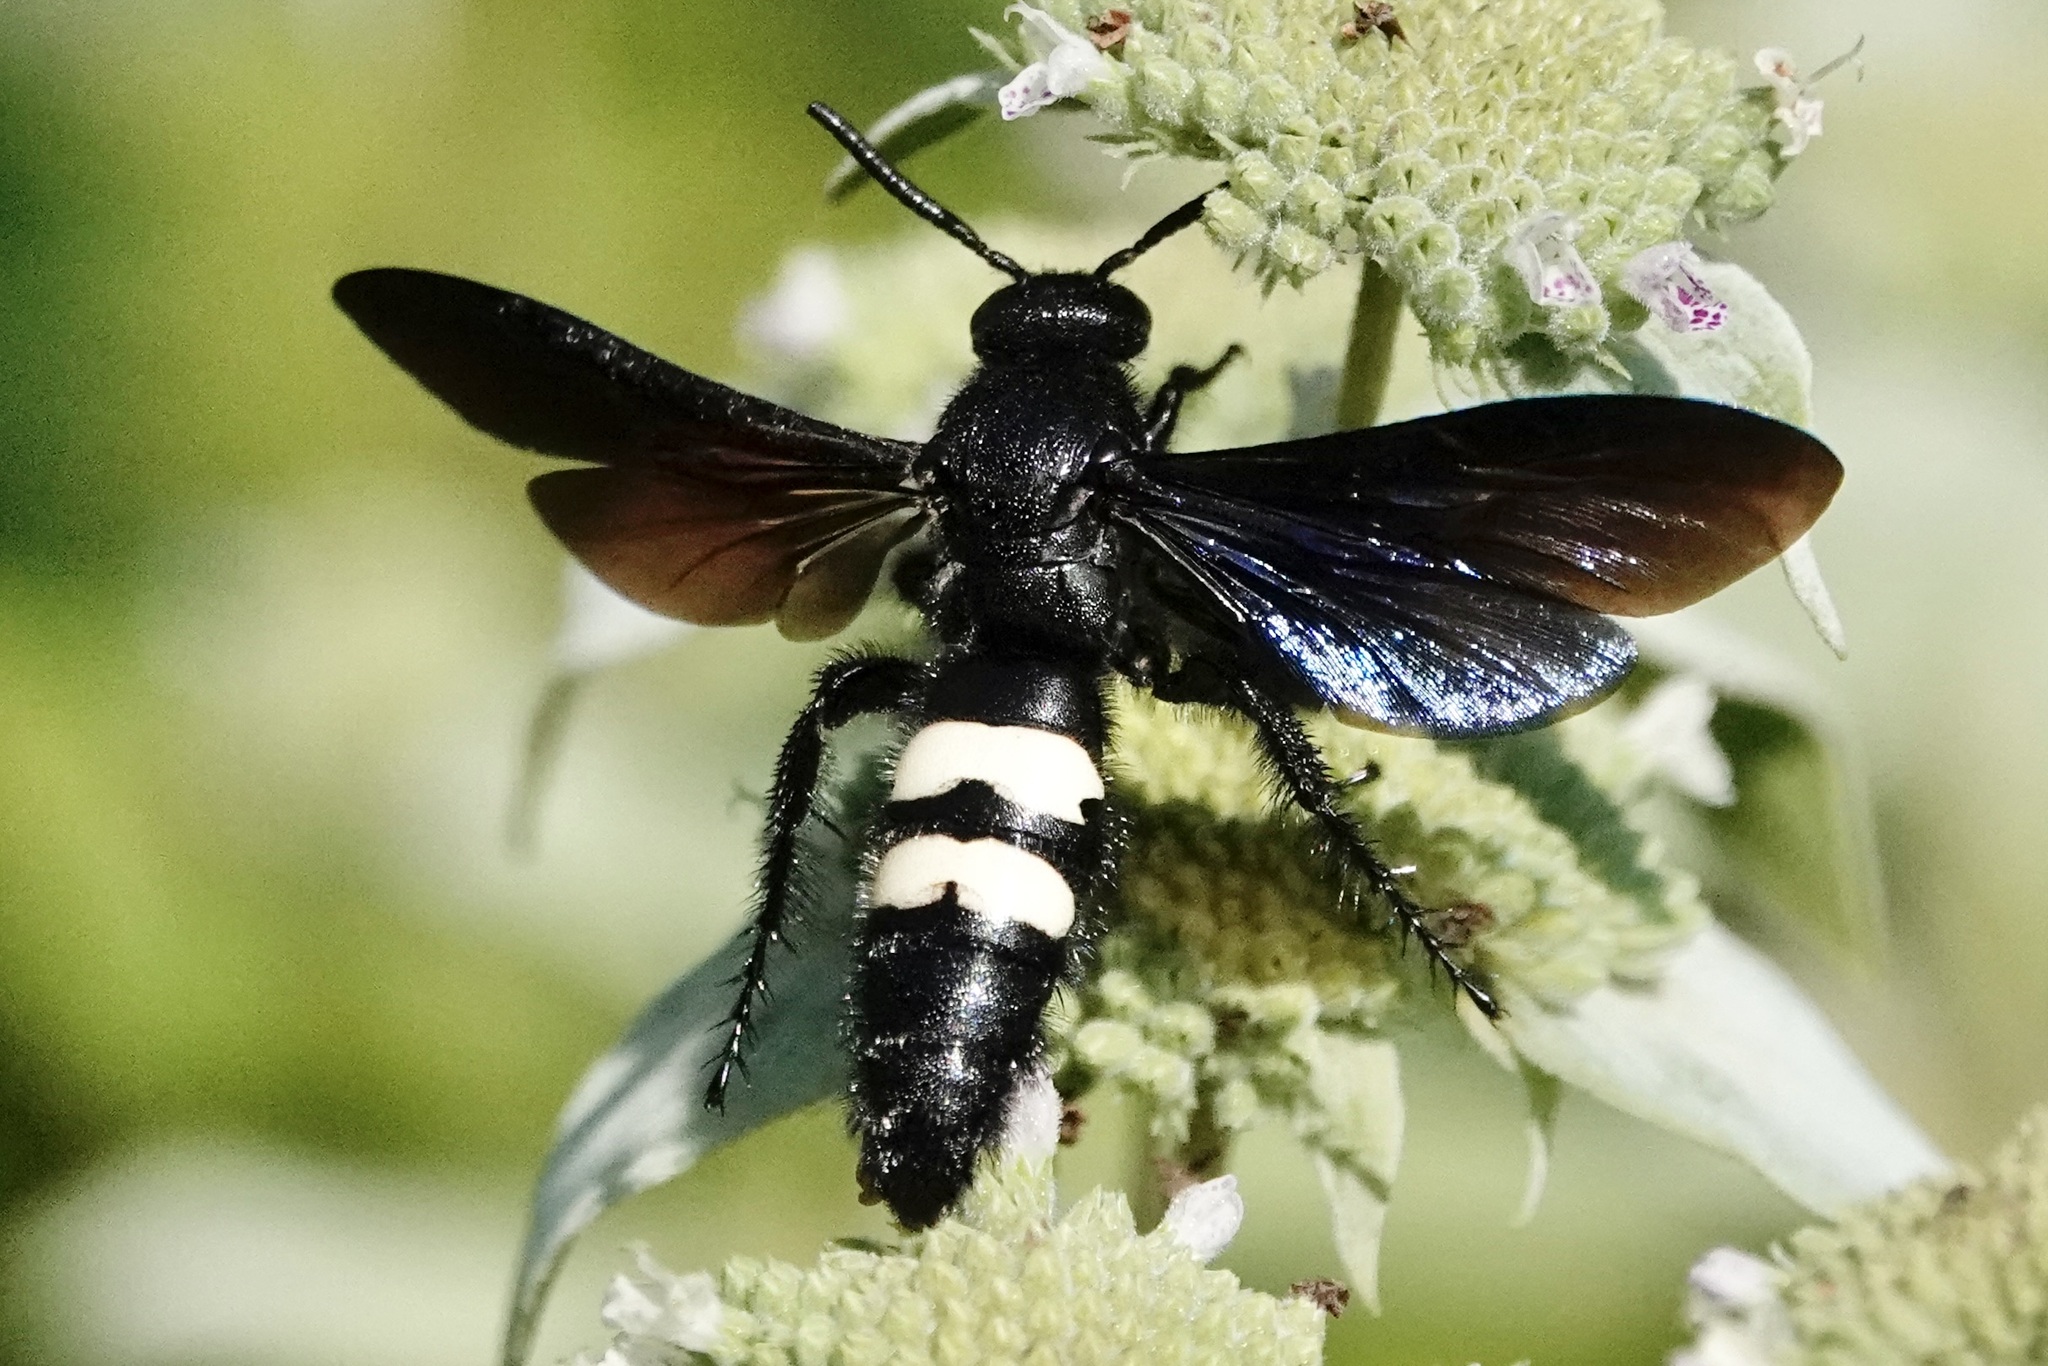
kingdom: Animalia
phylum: Arthropoda
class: Insecta
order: Hymenoptera
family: Scoliidae
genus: Scolia
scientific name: Scolia bicincta
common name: Double-banded scoliid wasp
